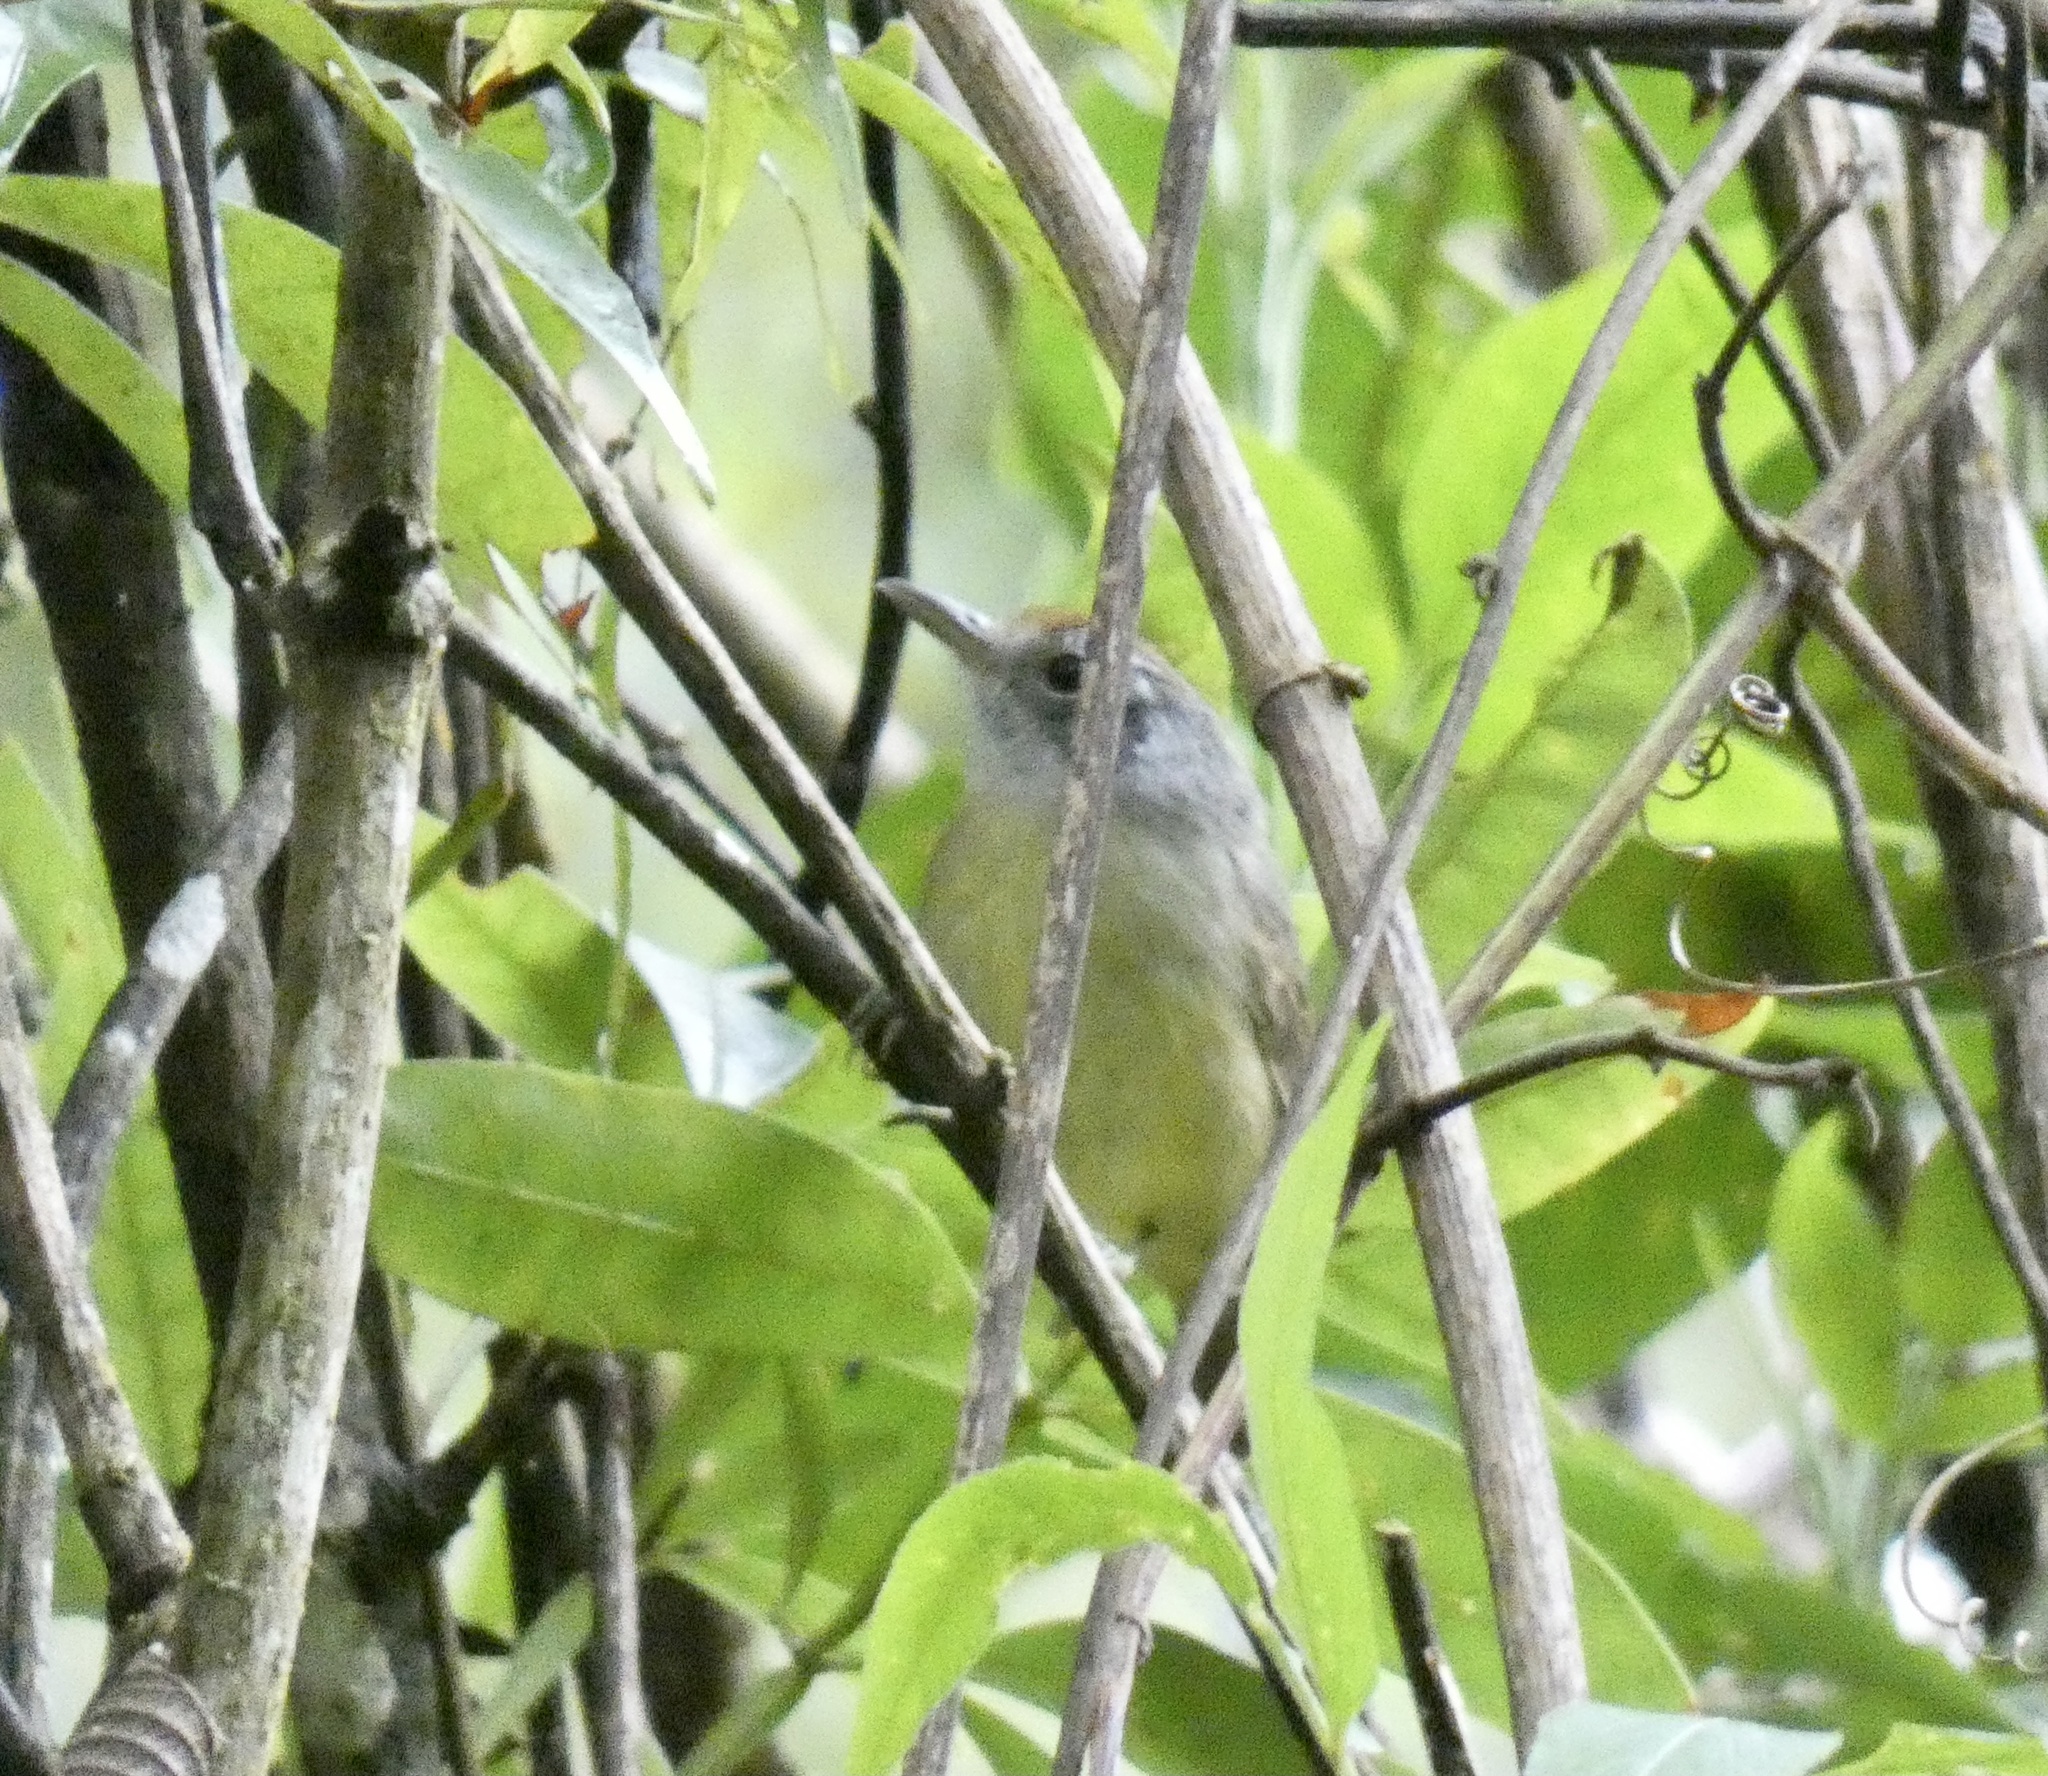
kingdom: Animalia
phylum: Chordata
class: Aves
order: Passeriformes
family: Thamnophilidae
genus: Dysithamnus
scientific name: Dysithamnus mentalis
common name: Plain antvireo
